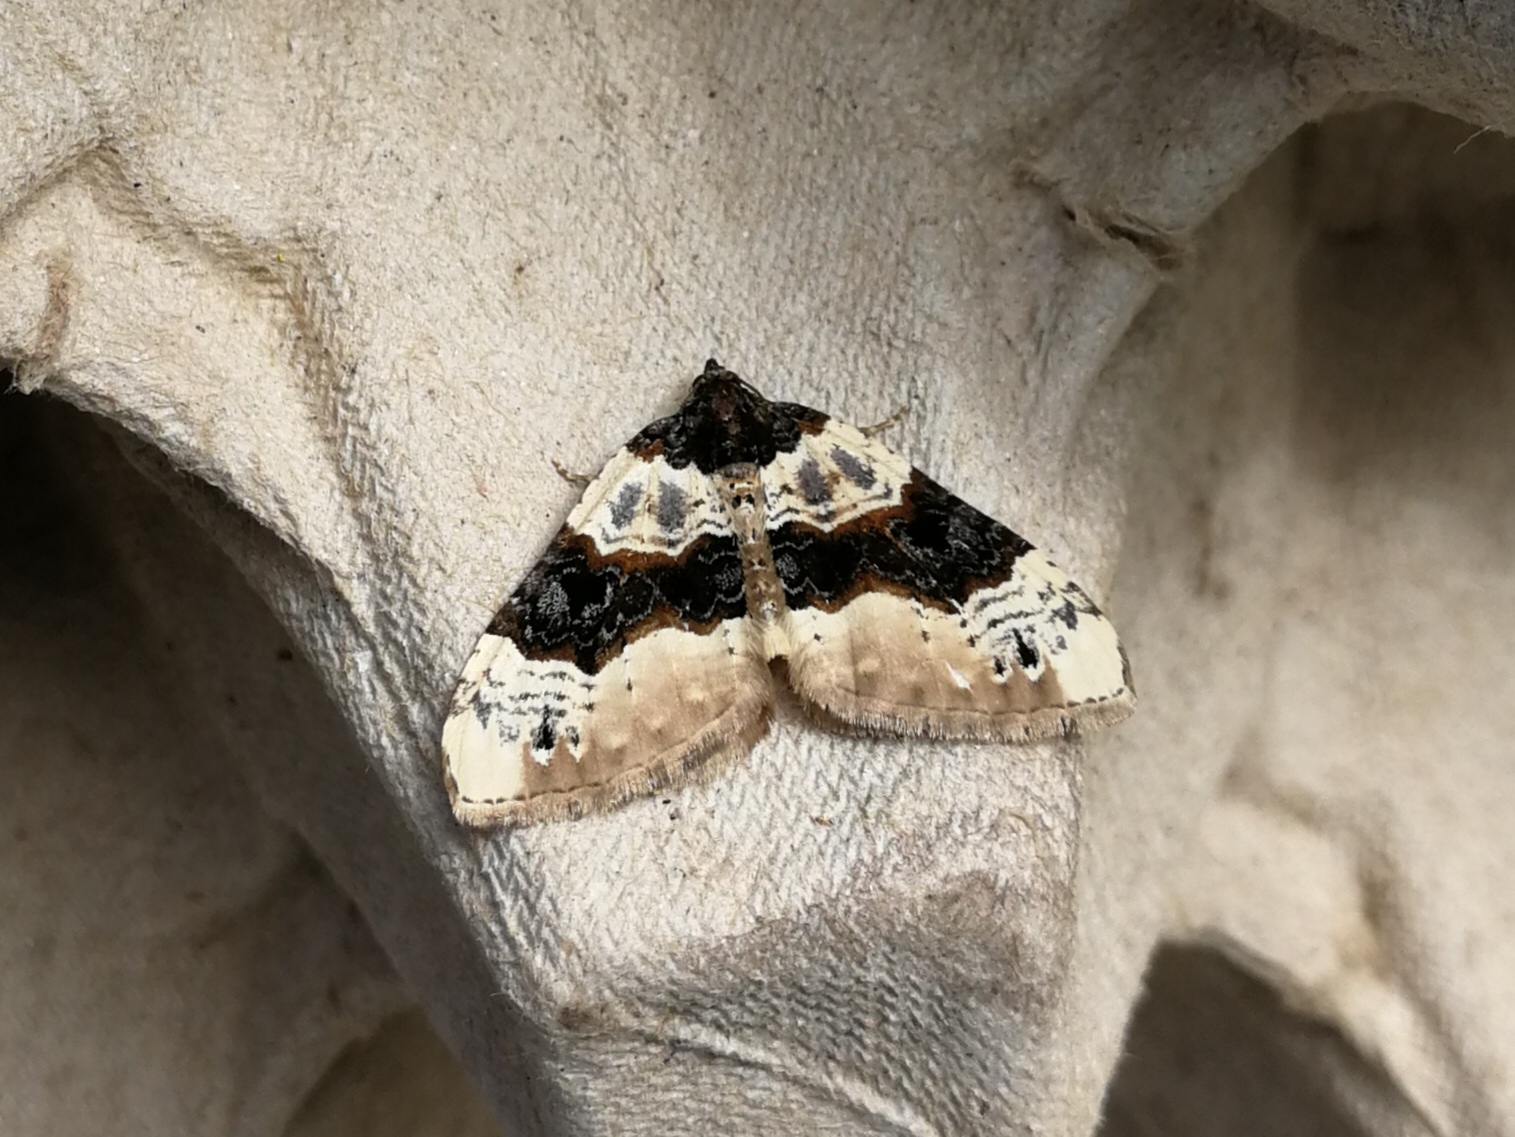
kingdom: Animalia
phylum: Arthropoda
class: Insecta
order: Lepidoptera
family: Geometridae
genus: Cosmorhoe
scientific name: Cosmorhoe ocellata
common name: Purple bar
